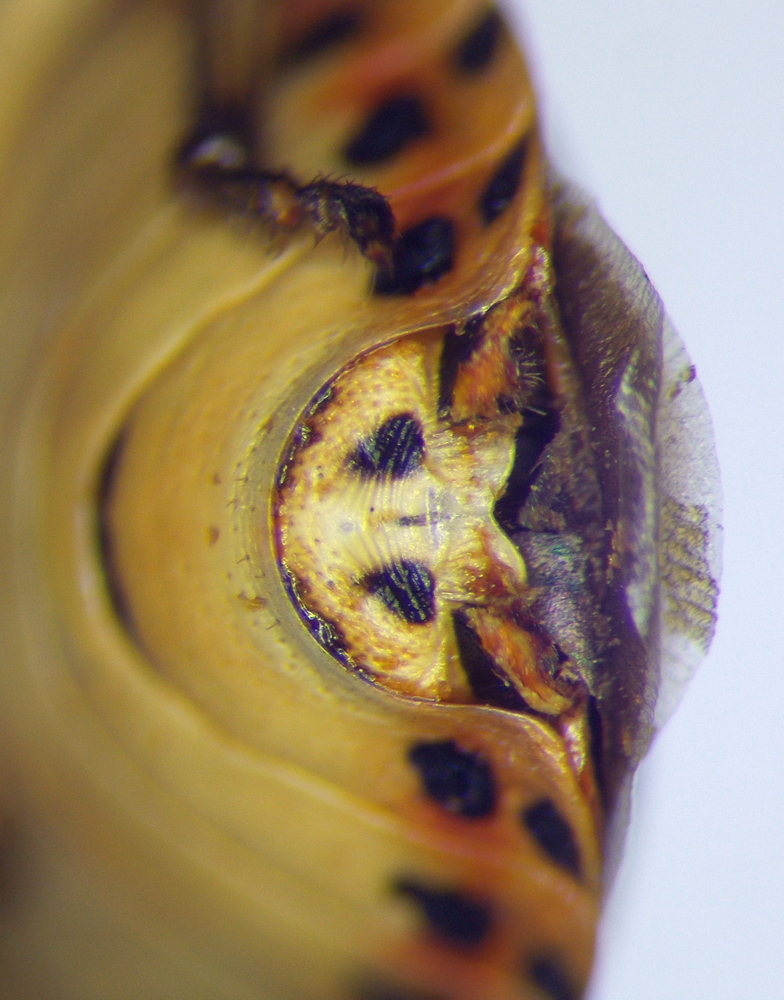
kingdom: Animalia
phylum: Arthropoda
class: Insecta
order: Hemiptera
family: Pentatomidae
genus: Eurydema
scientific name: Eurydema fieberi
